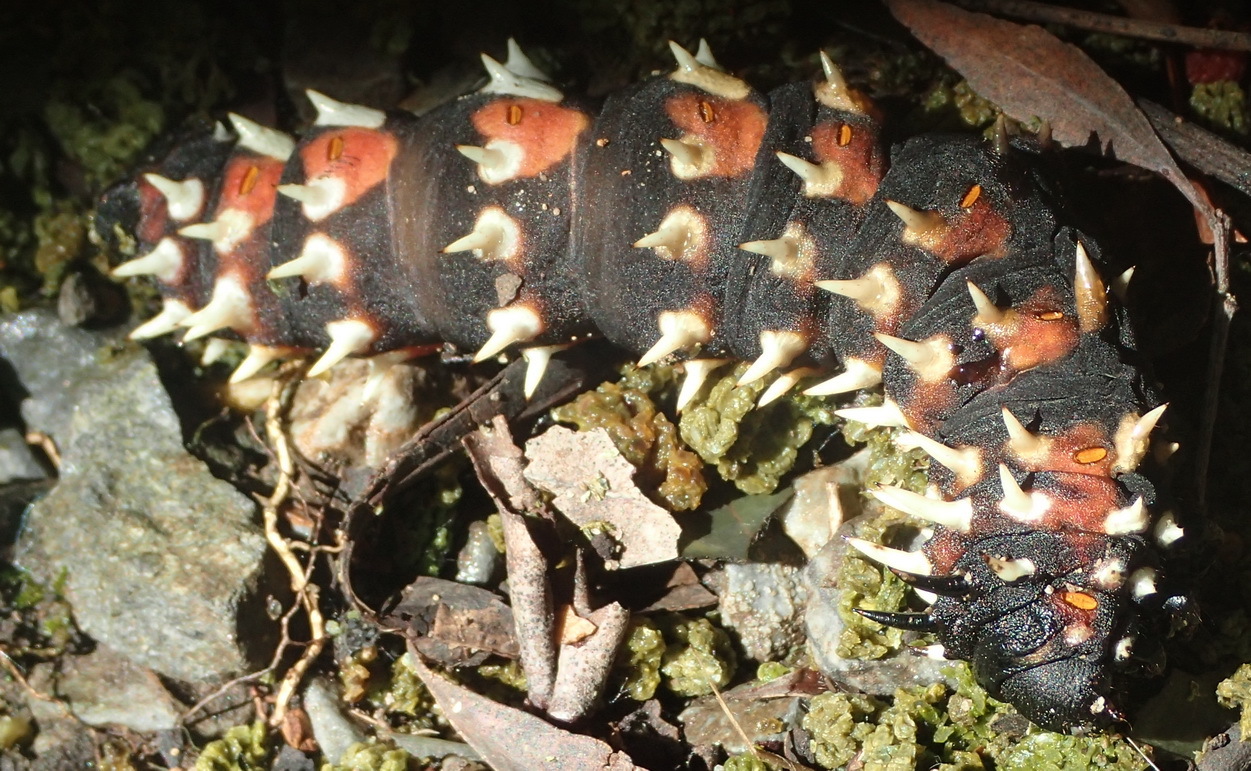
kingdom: Animalia
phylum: Arthropoda
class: Insecta
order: Lepidoptera
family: Saturniidae
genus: Bunaea
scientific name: Bunaea alcinoe
